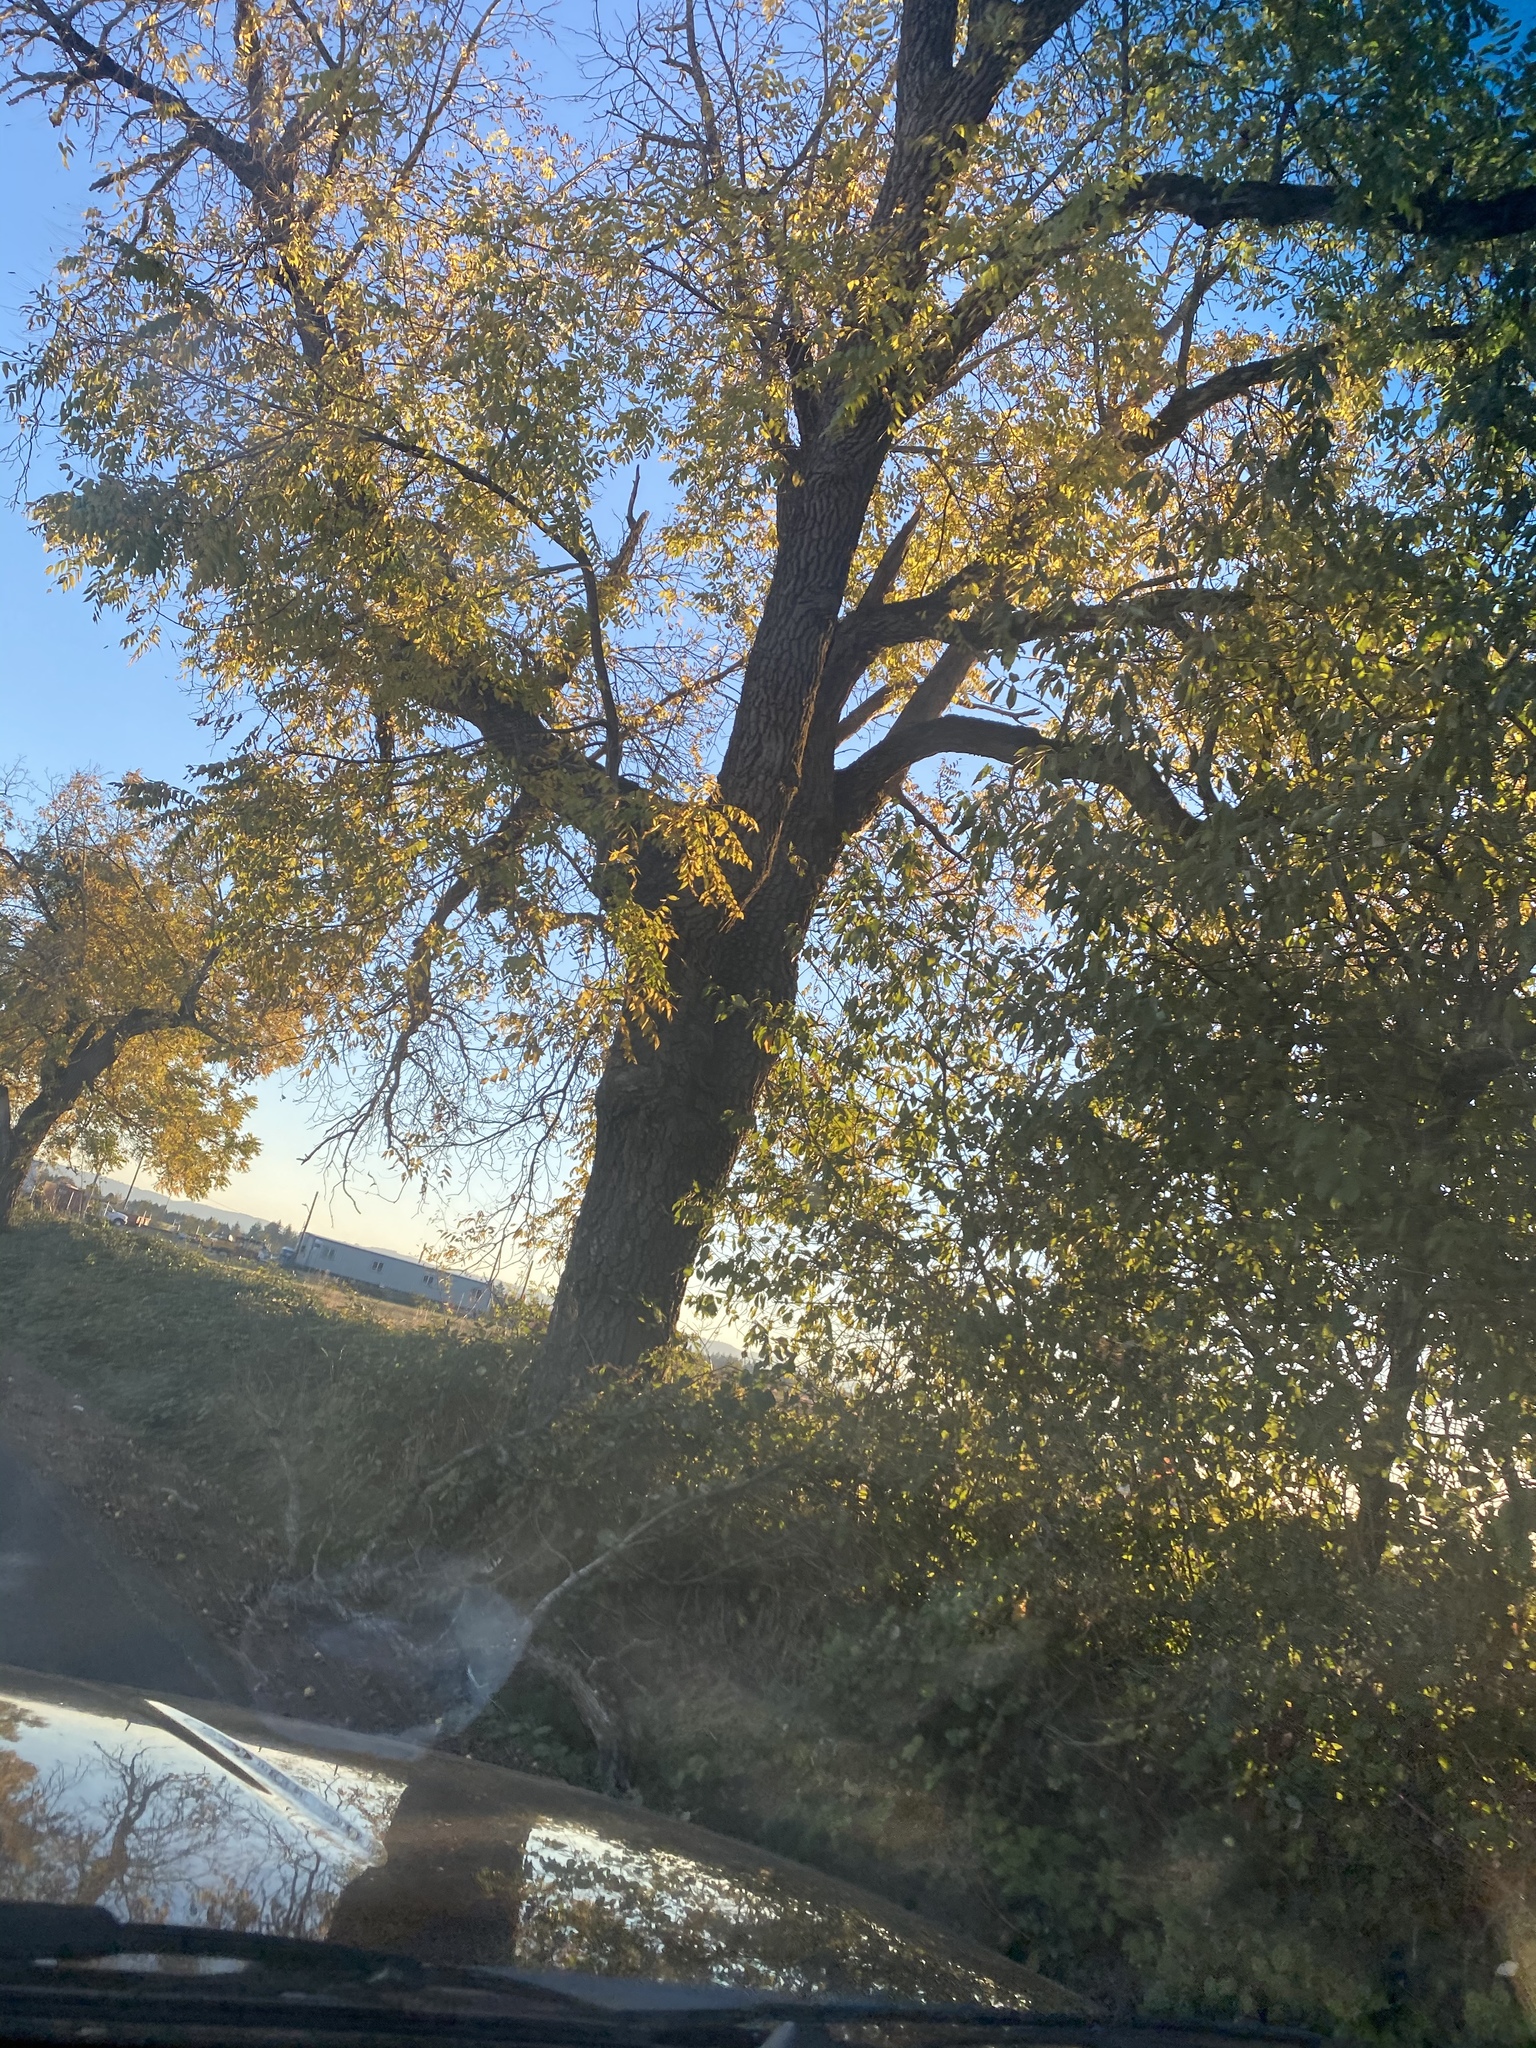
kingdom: Plantae
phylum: Tracheophyta
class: Magnoliopsida
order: Fagales
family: Juglandaceae
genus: Juglans
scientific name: Juglans nigra
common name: Black walnut
